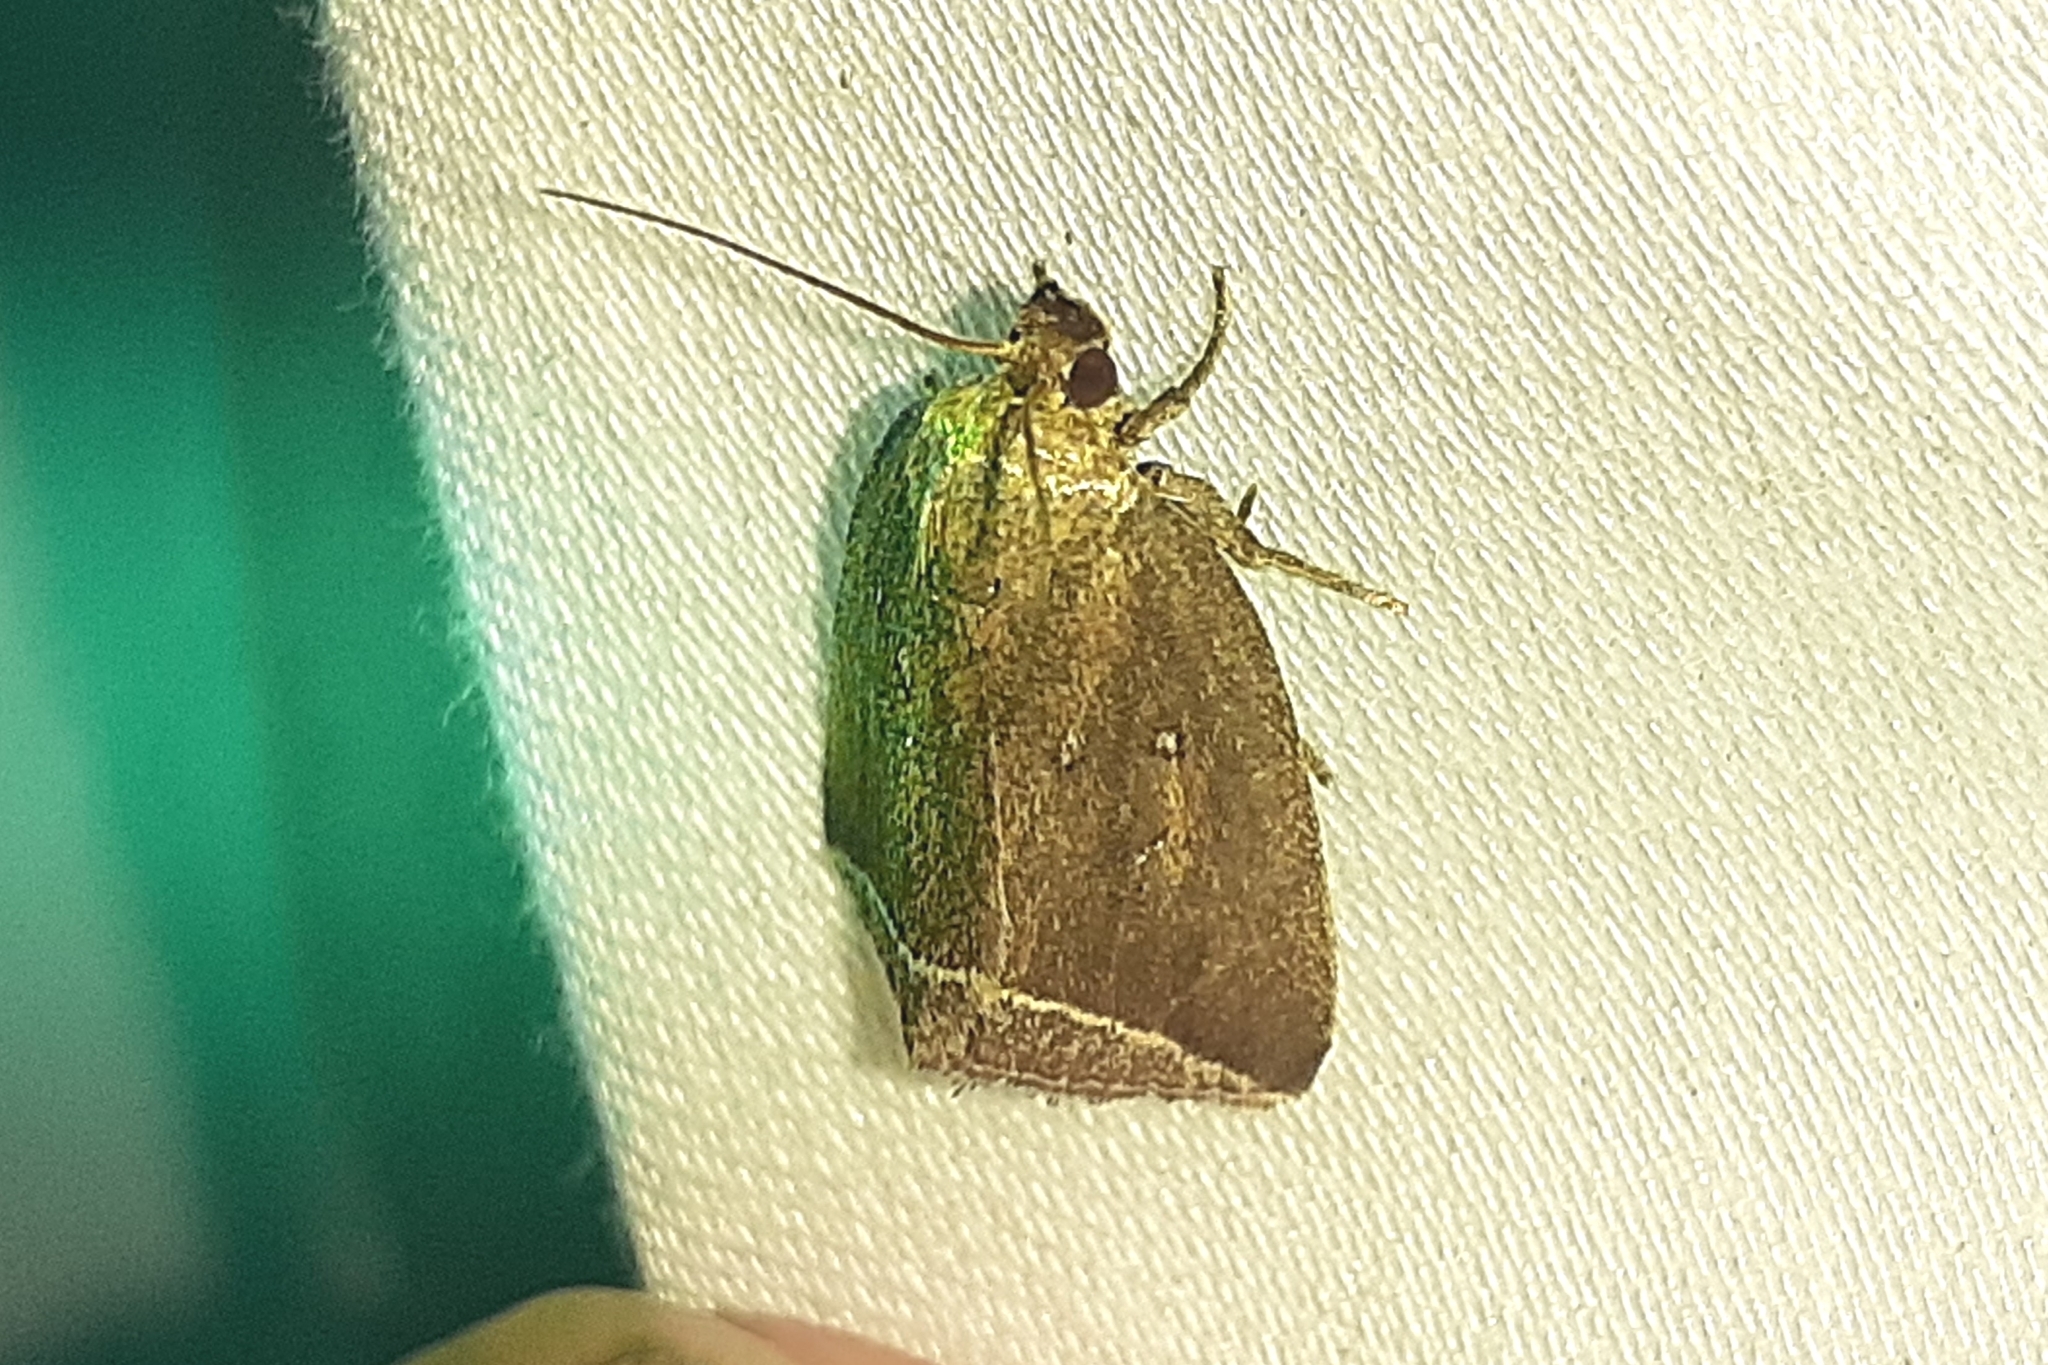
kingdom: Animalia
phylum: Arthropoda
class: Insecta
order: Lepidoptera
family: Erebidae
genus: Capis
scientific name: Capis curvata
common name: Curved halter moth
